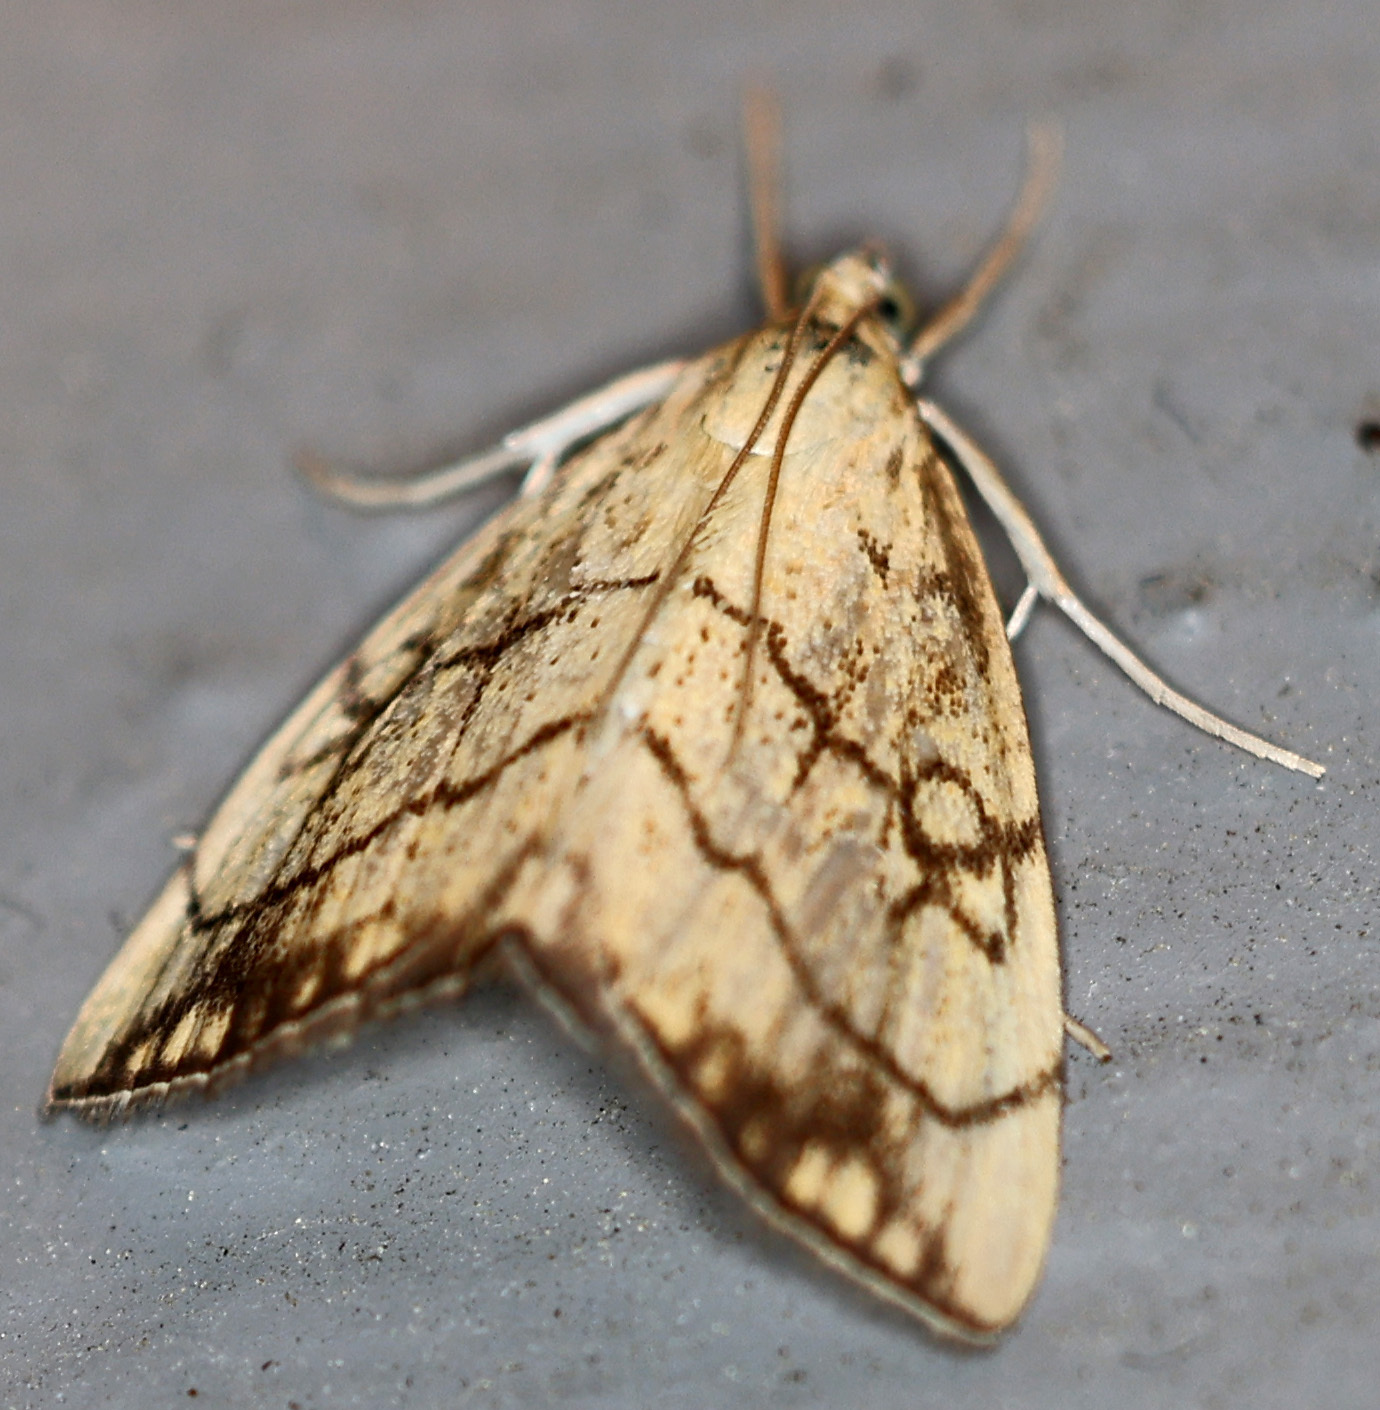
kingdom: Animalia
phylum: Arthropoda
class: Insecta
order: Lepidoptera
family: Crambidae
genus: Evergestis
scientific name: Evergestis pallidata
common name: Chequered pearl
